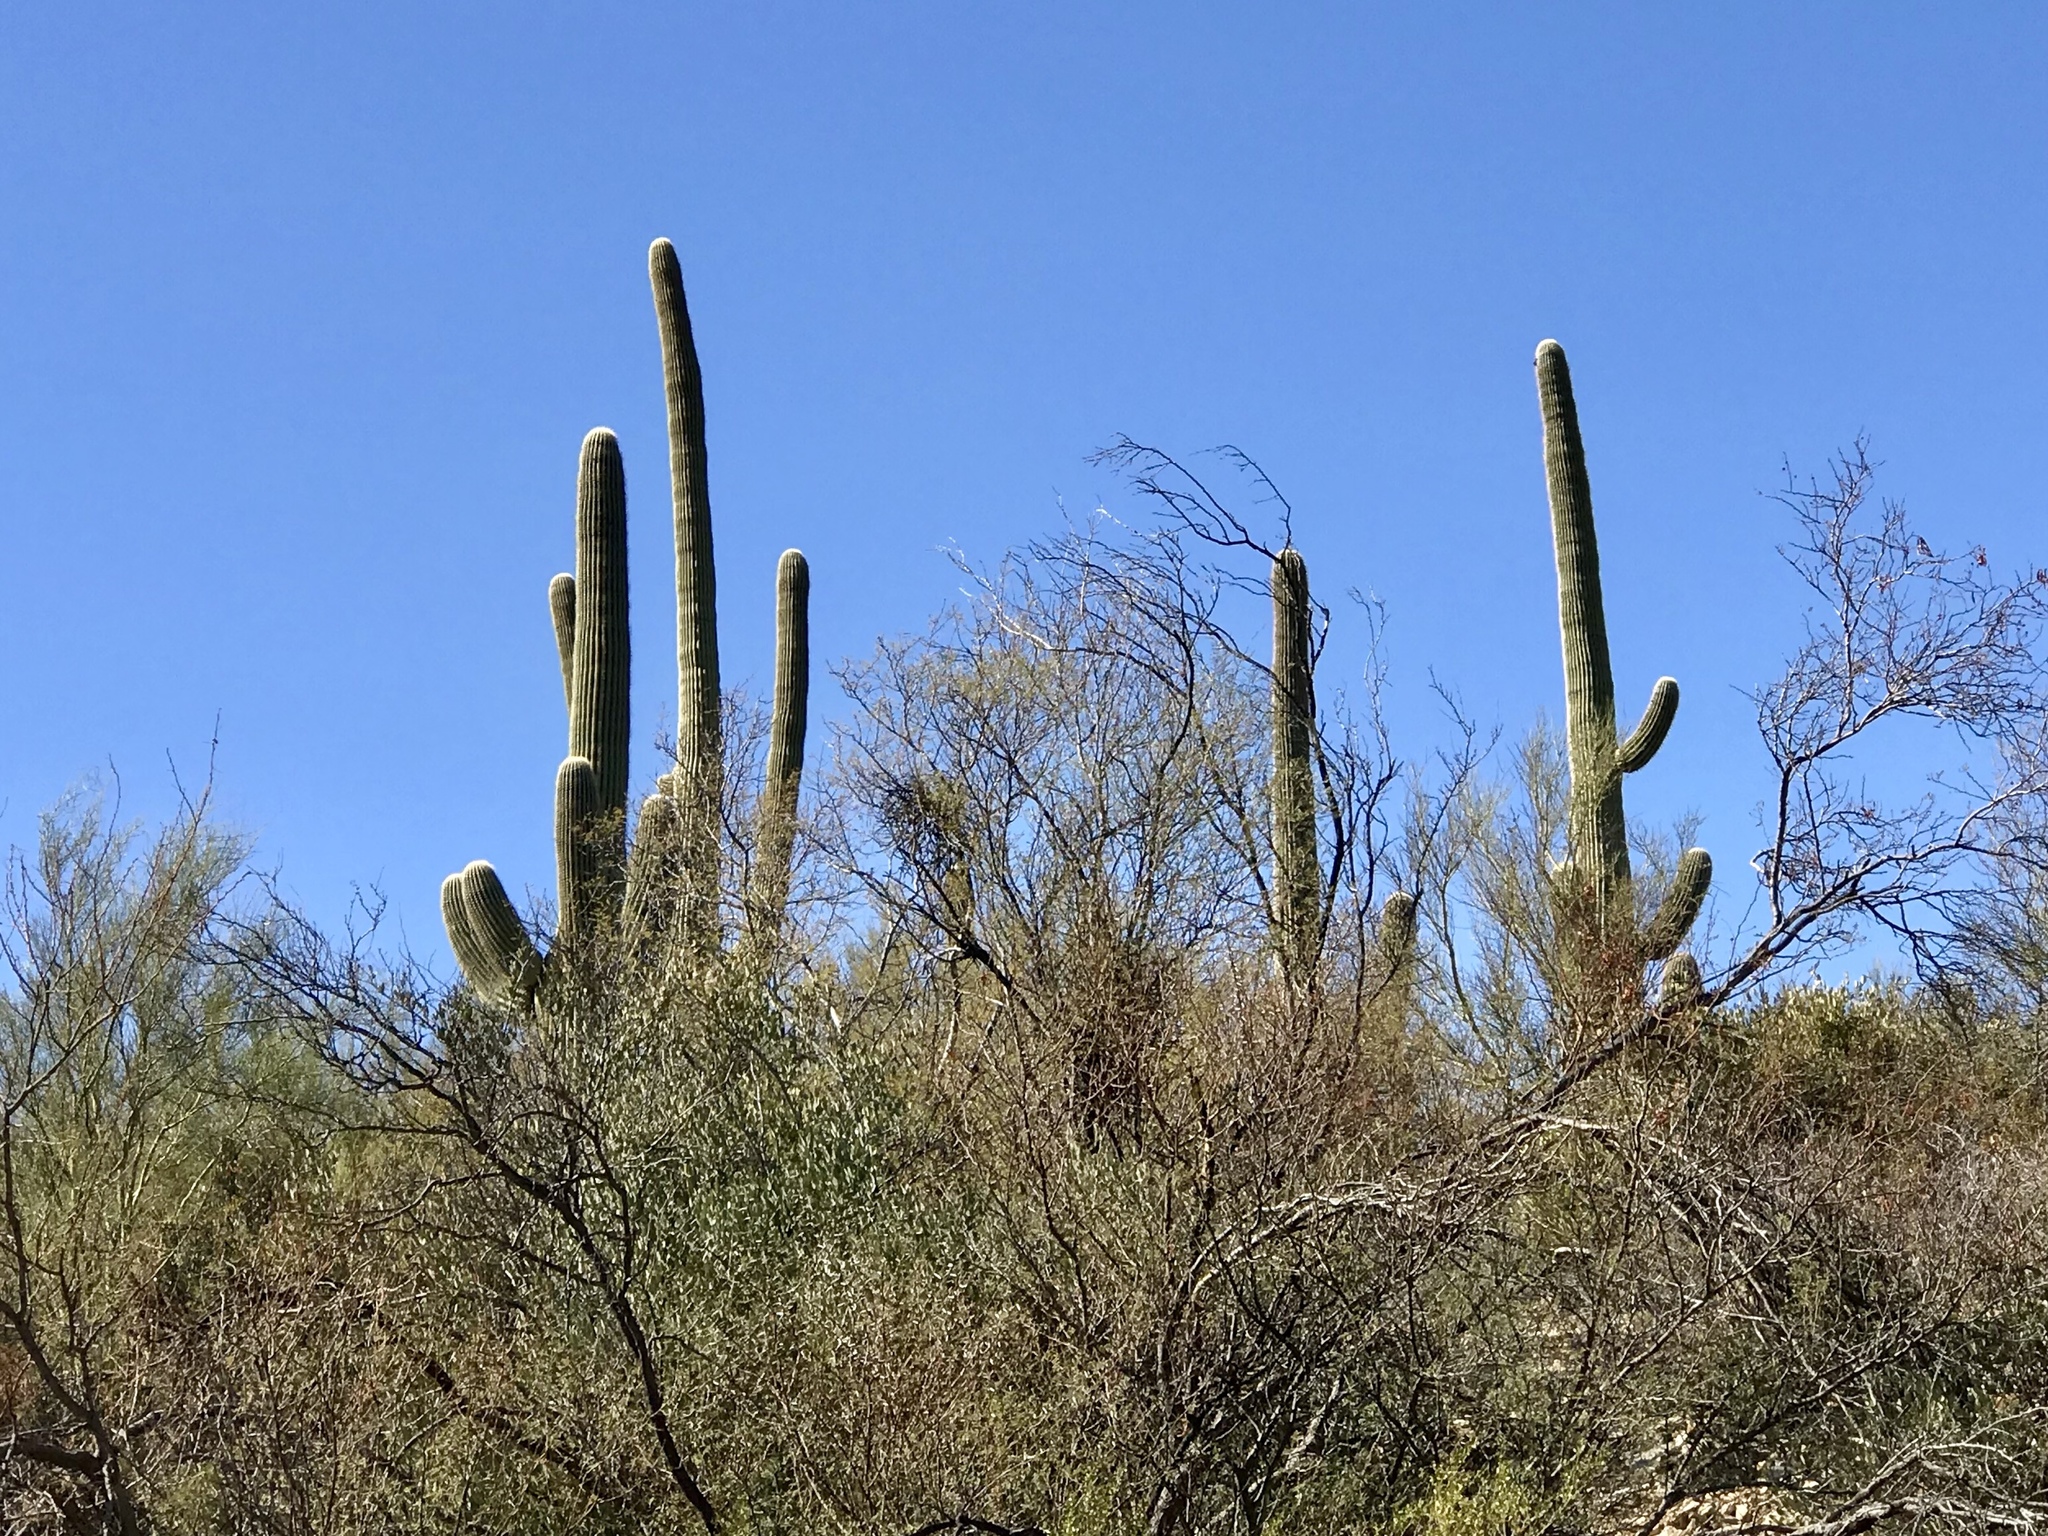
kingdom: Plantae
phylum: Tracheophyta
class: Magnoliopsida
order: Caryophyllales
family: Cactaceae
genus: Carnegiea
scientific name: Carnegiea gigantea
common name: Saguaro
